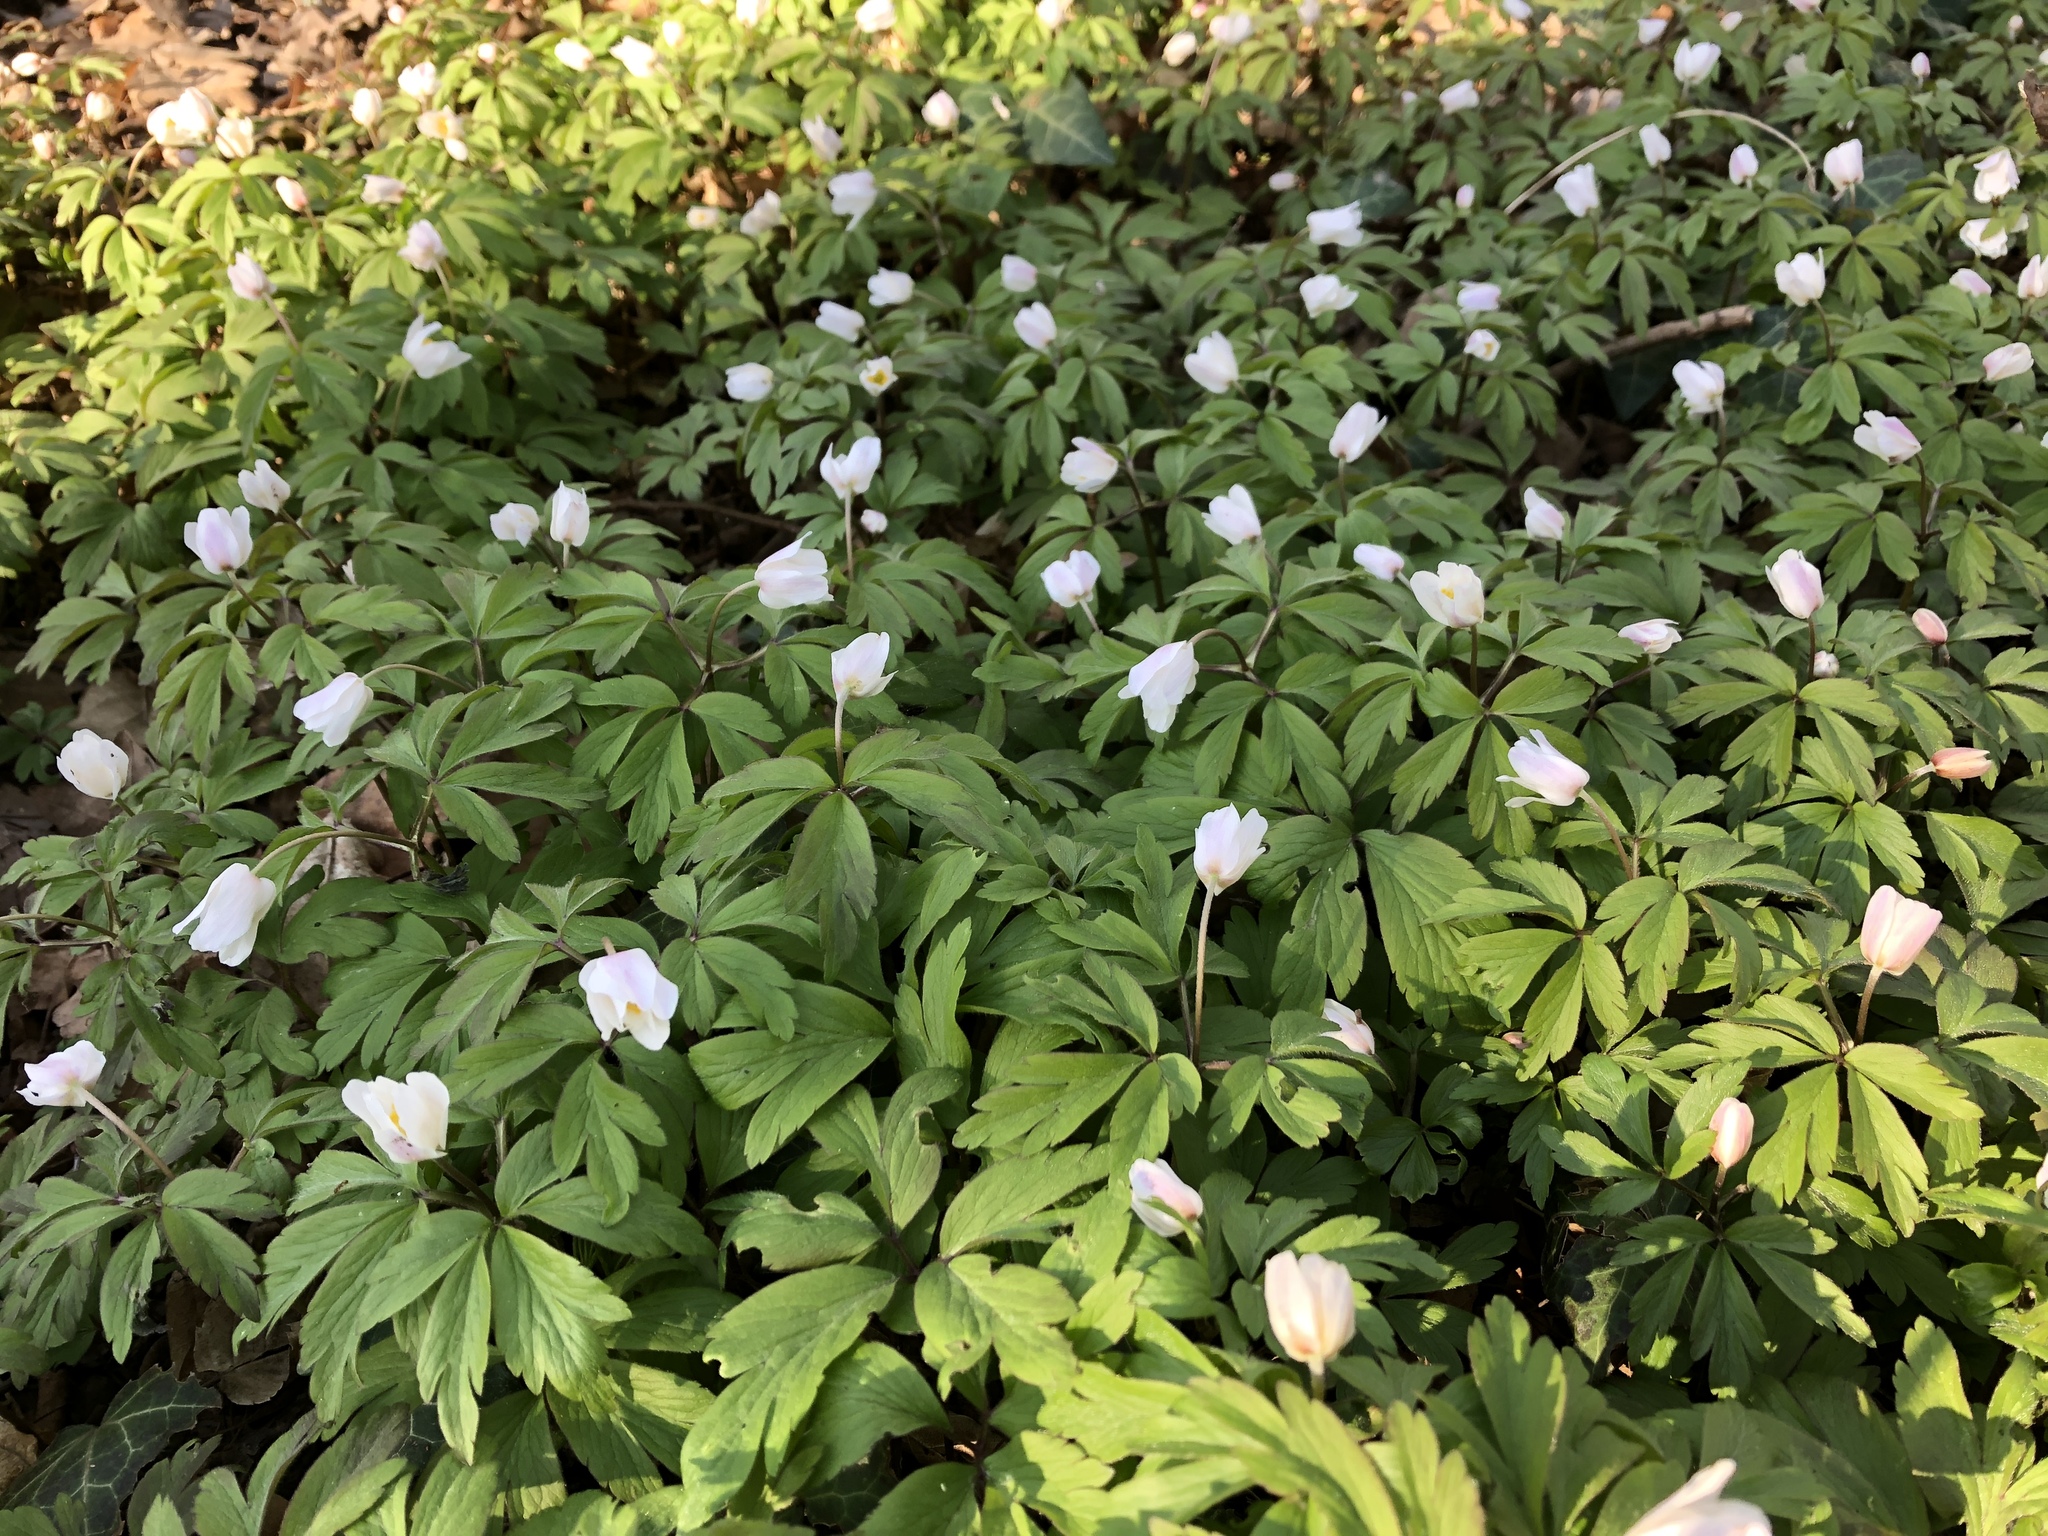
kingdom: Plantae
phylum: Tracheophyta
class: Magnoliopsida
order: Ranunculales
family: Ranunculaceae
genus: Anemone
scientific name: Anemone nemorosa
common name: Wood anemone
